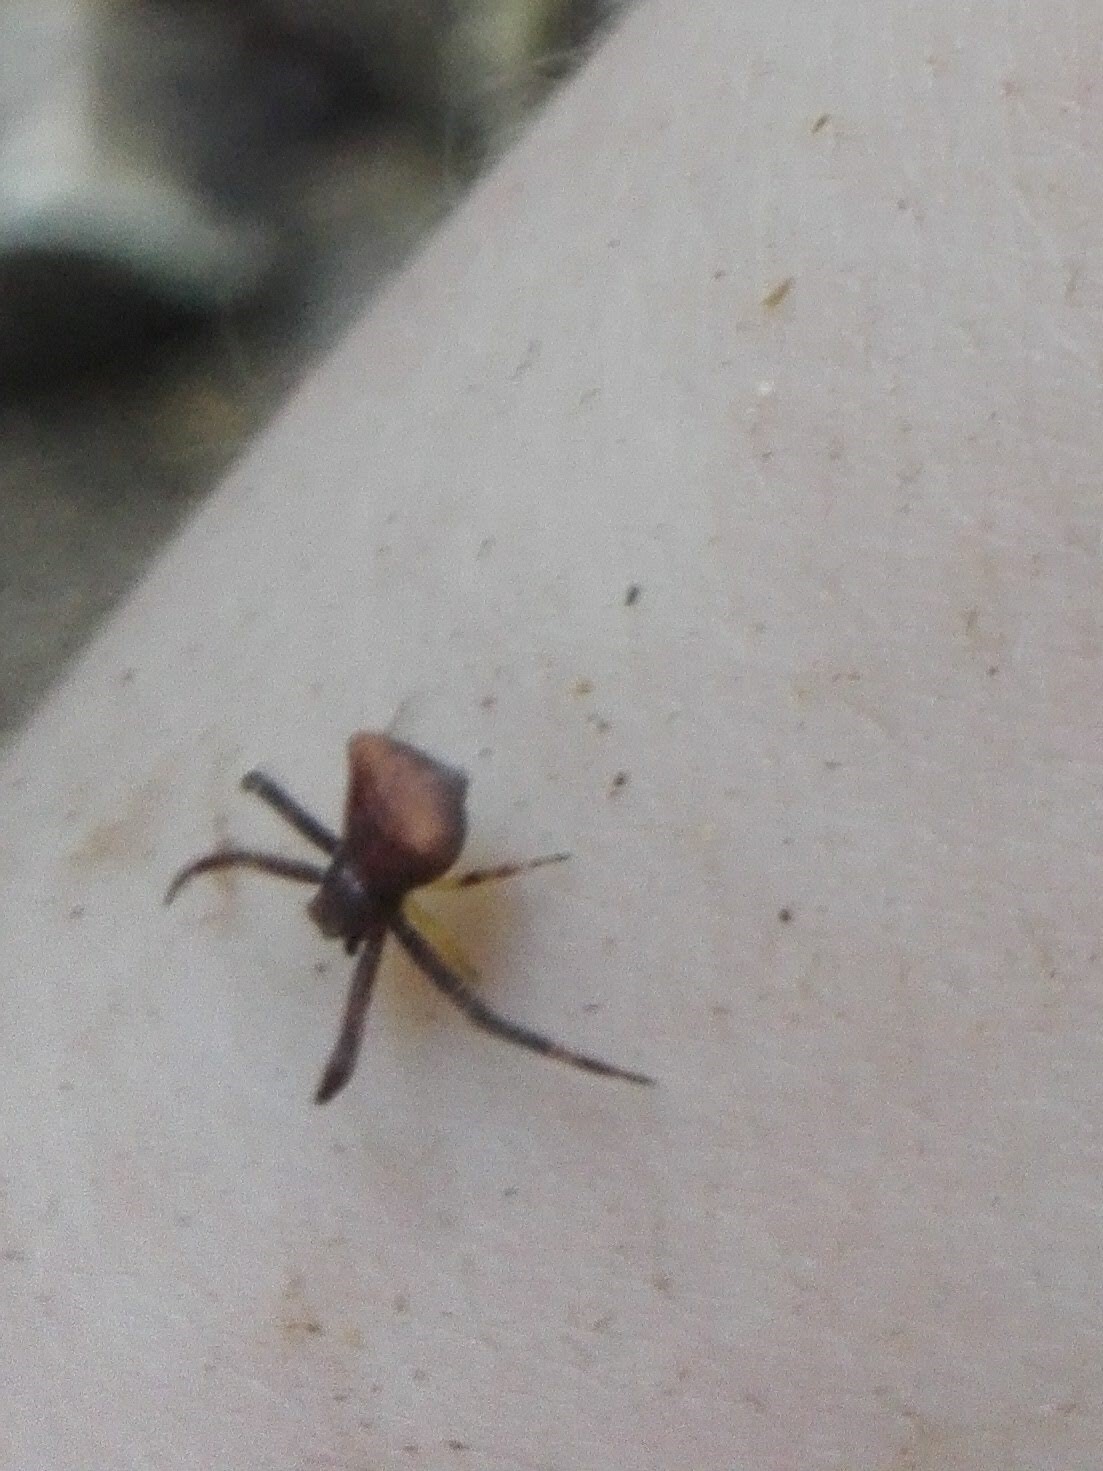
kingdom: Animalia
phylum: Arthropoda
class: Arachnida
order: Araneae
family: Thomisidae
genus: Pistius
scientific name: Pistius truncatus
